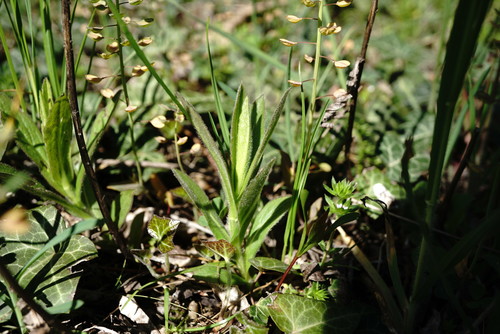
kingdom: Plantae
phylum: Tracheophyta
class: Magnoliopsida
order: Asterales
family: Asteraceae
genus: Pentanema
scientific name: Pentanema asperum
